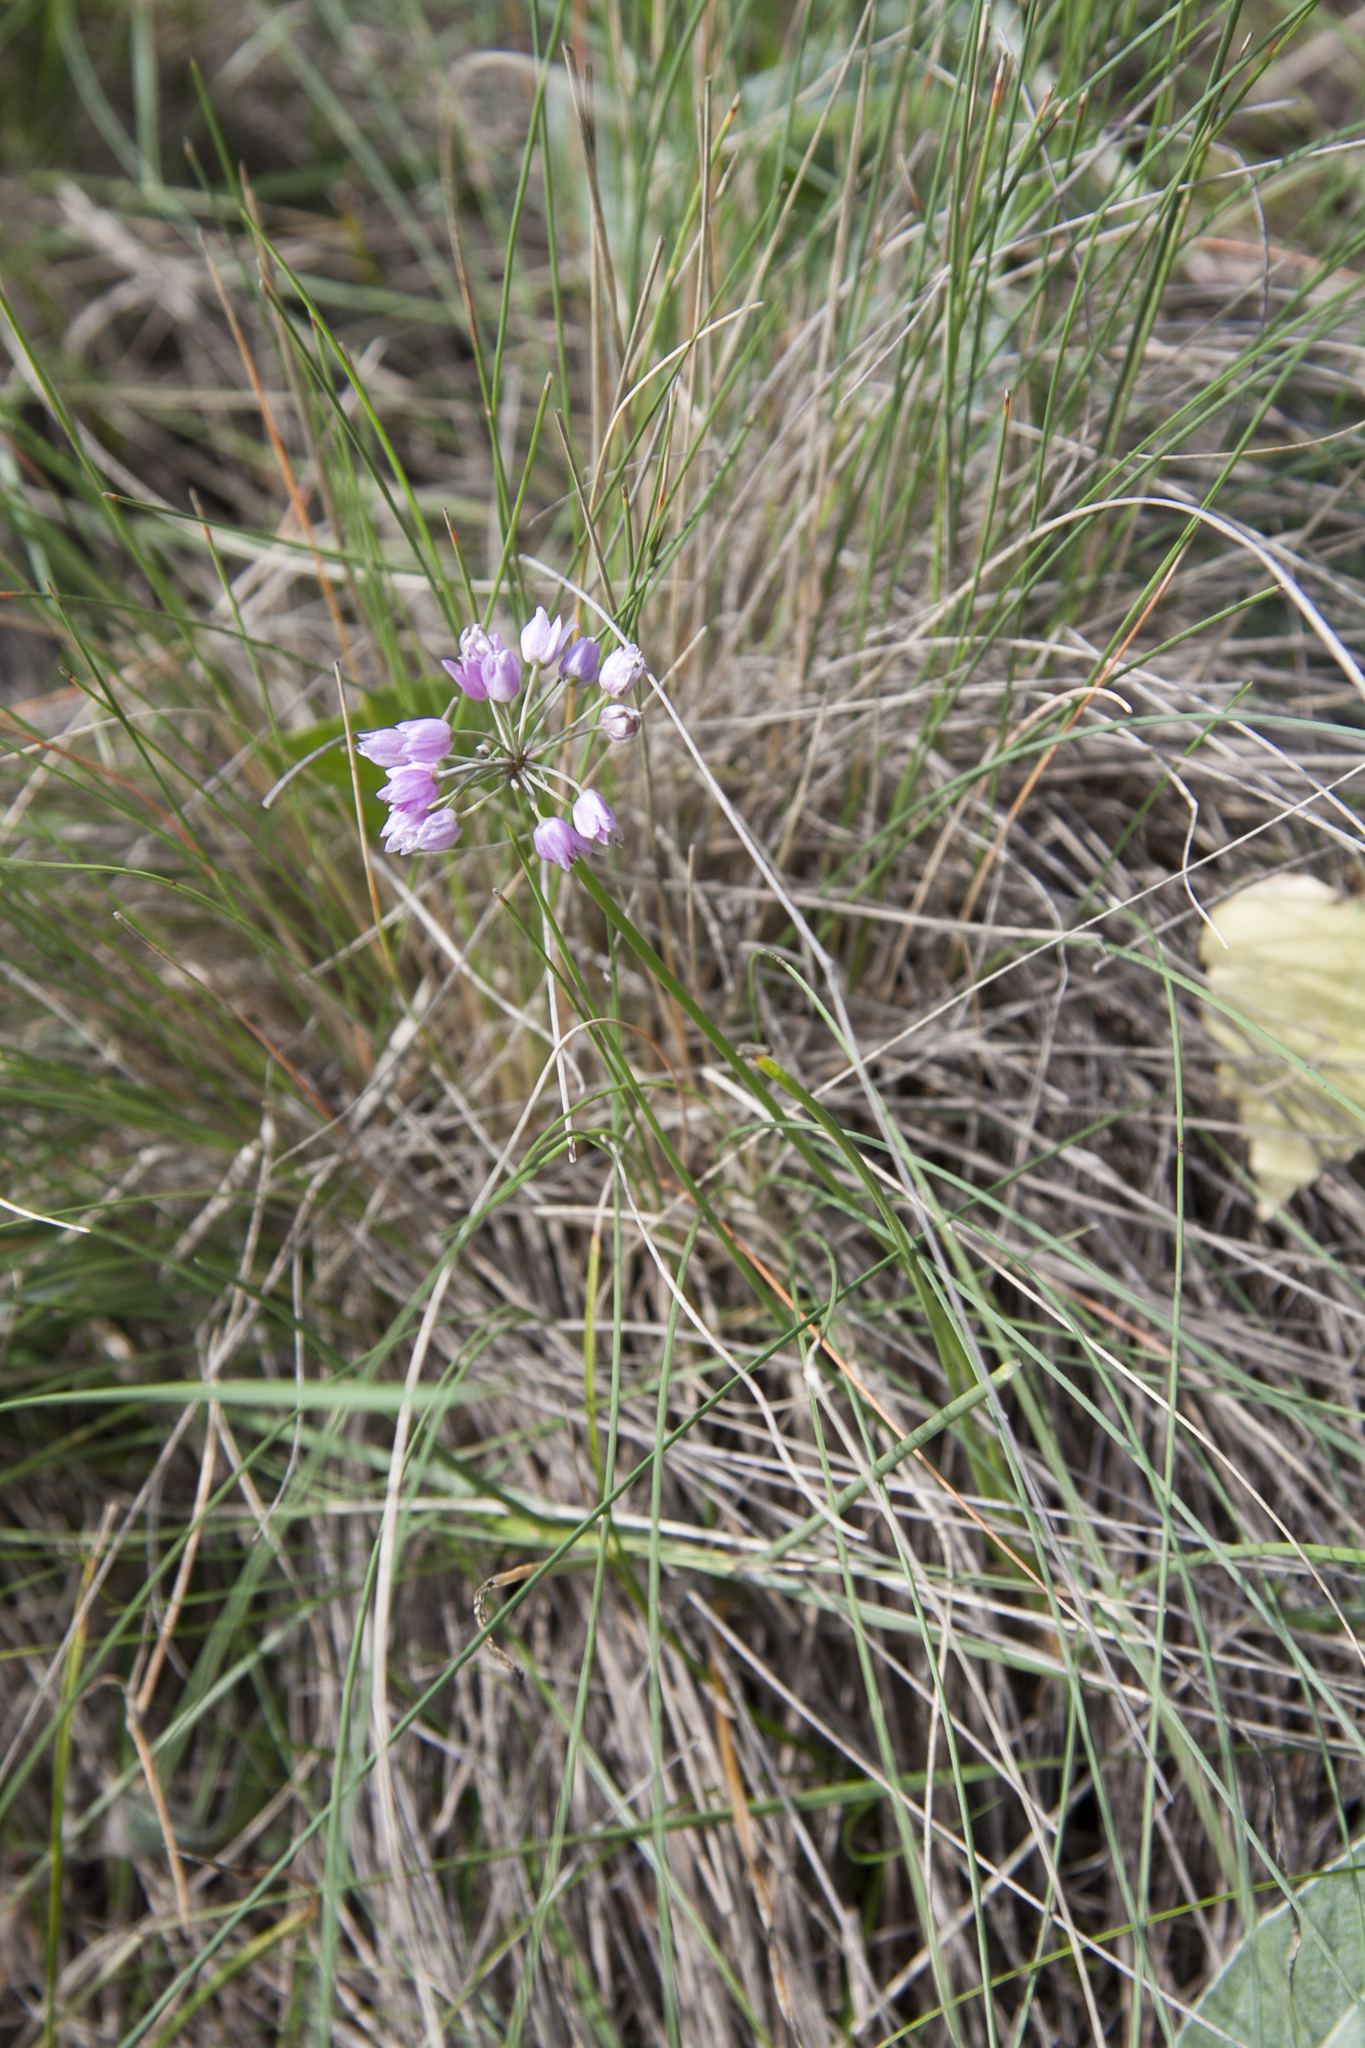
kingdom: Plantae
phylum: Tracheophyta
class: Liliopsida
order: Asparagales
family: Amaryllidaceae
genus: Allium
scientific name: Allium rubens
